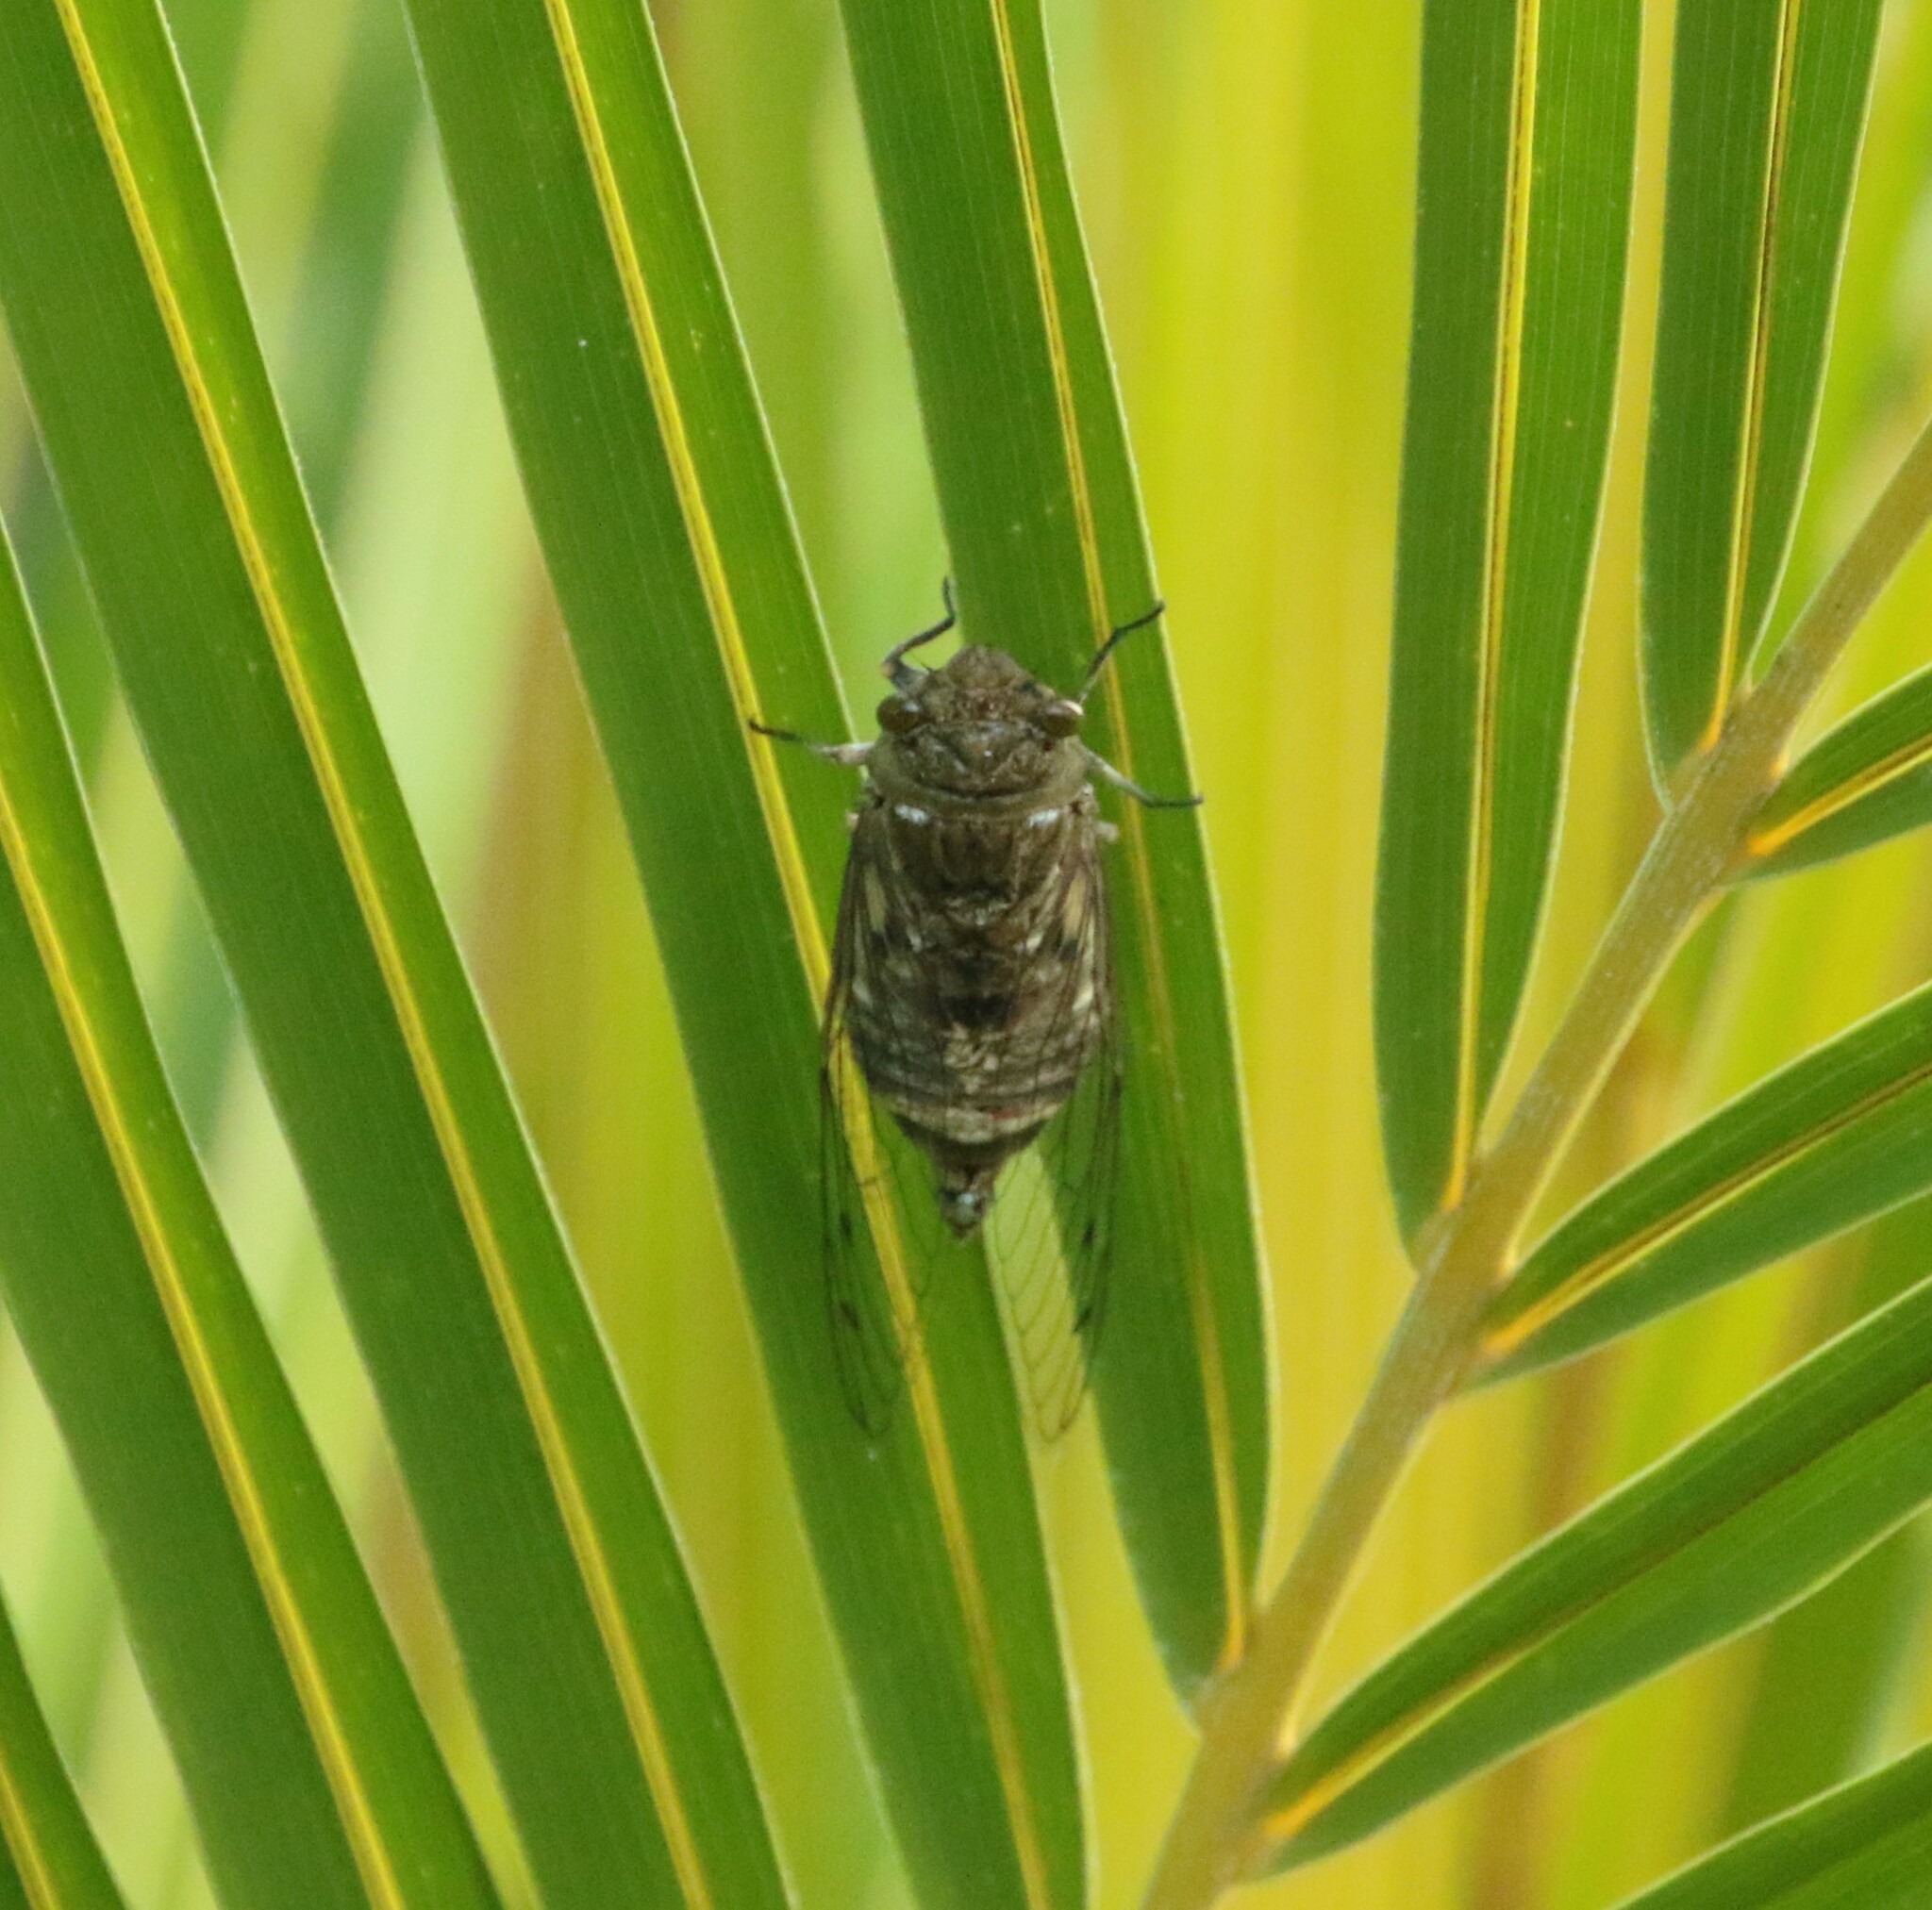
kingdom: Animalia
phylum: Arthropoda
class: Insecta
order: Hemiptera
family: Cicadidae
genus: Quesada
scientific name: Quesada gigas
